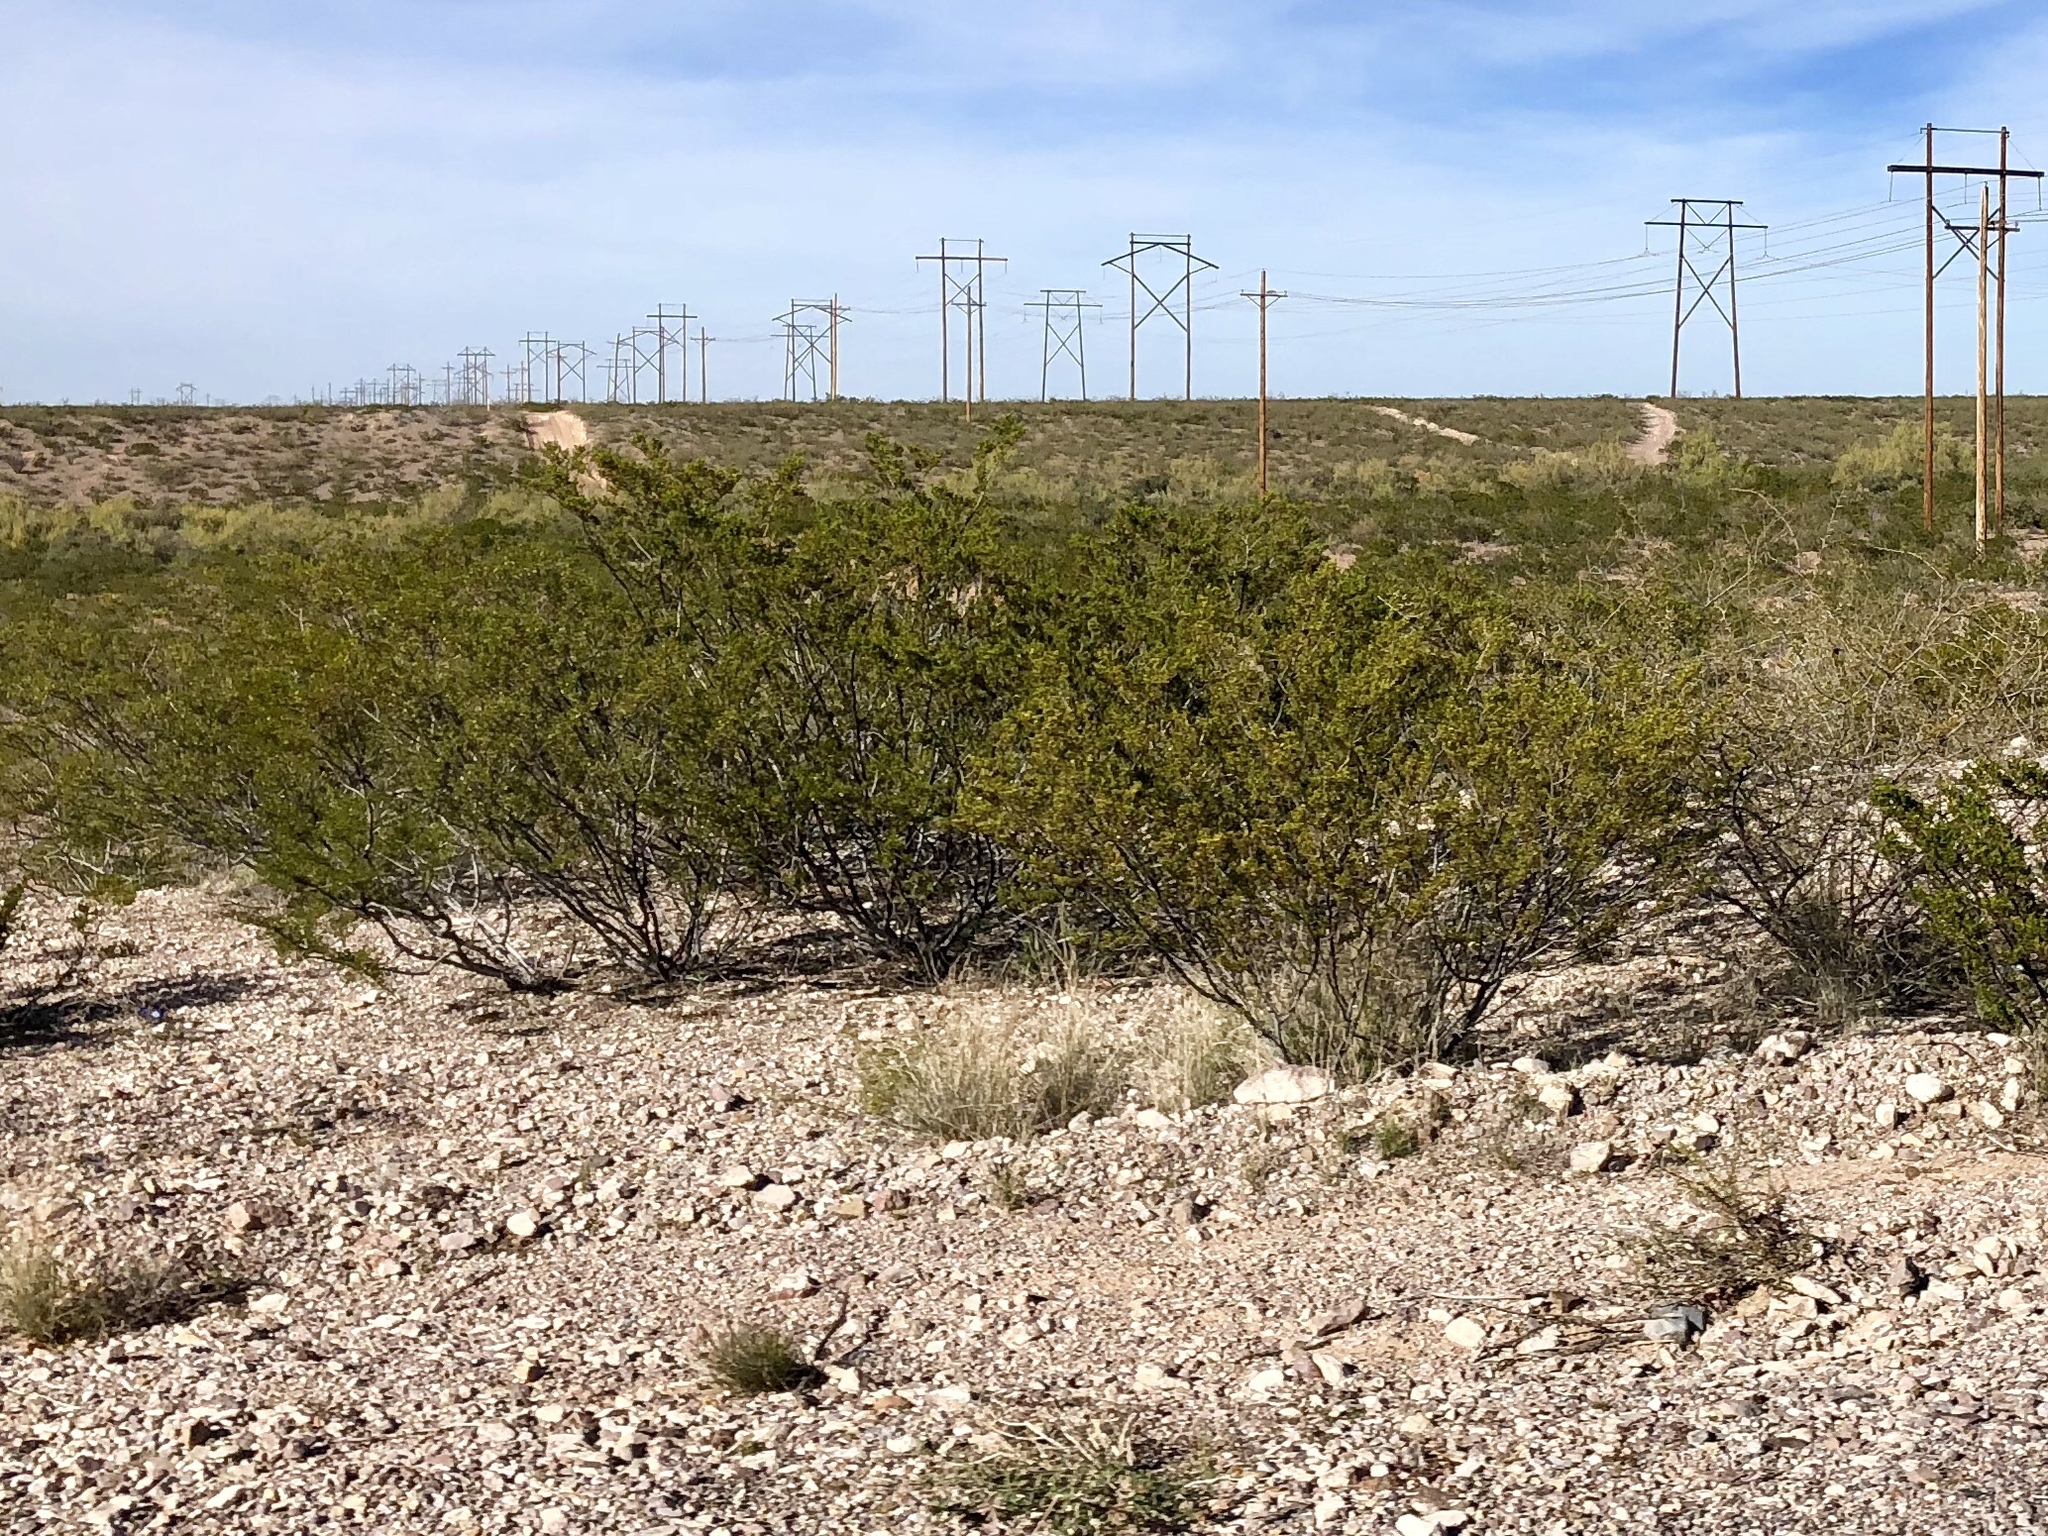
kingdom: Plantae
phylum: Tracheophyta
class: Magnoliopsida
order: Zygophyllales
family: Zygophyllaceae
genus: Larrea
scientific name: Larrea tridentata
